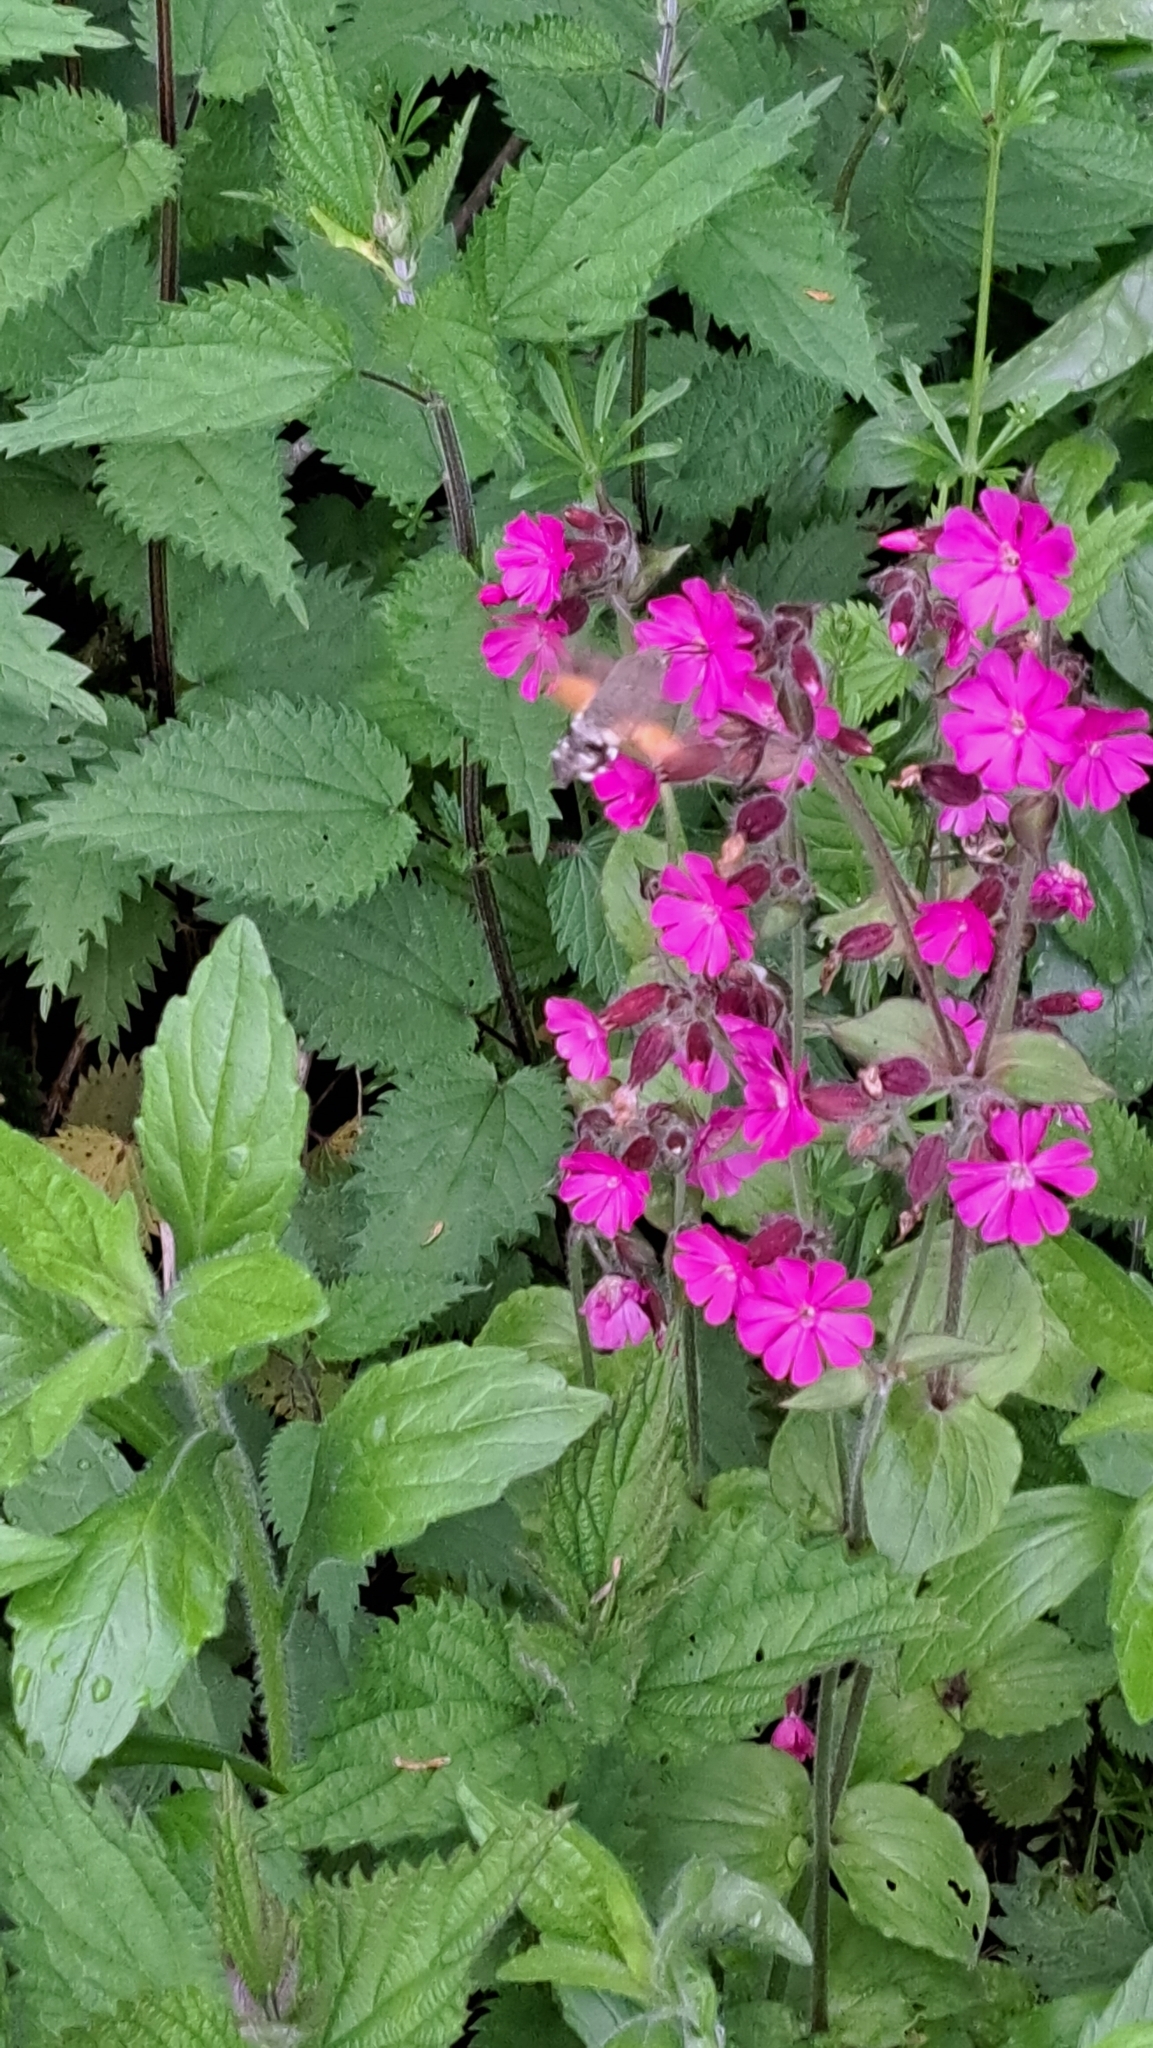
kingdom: Animalia
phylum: Arthropoda
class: Insecta
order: Lepidoptera
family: Sphingidae
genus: Macroglossum
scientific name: Macroglossum stellatarum
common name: Humming-bird hawk-moth
